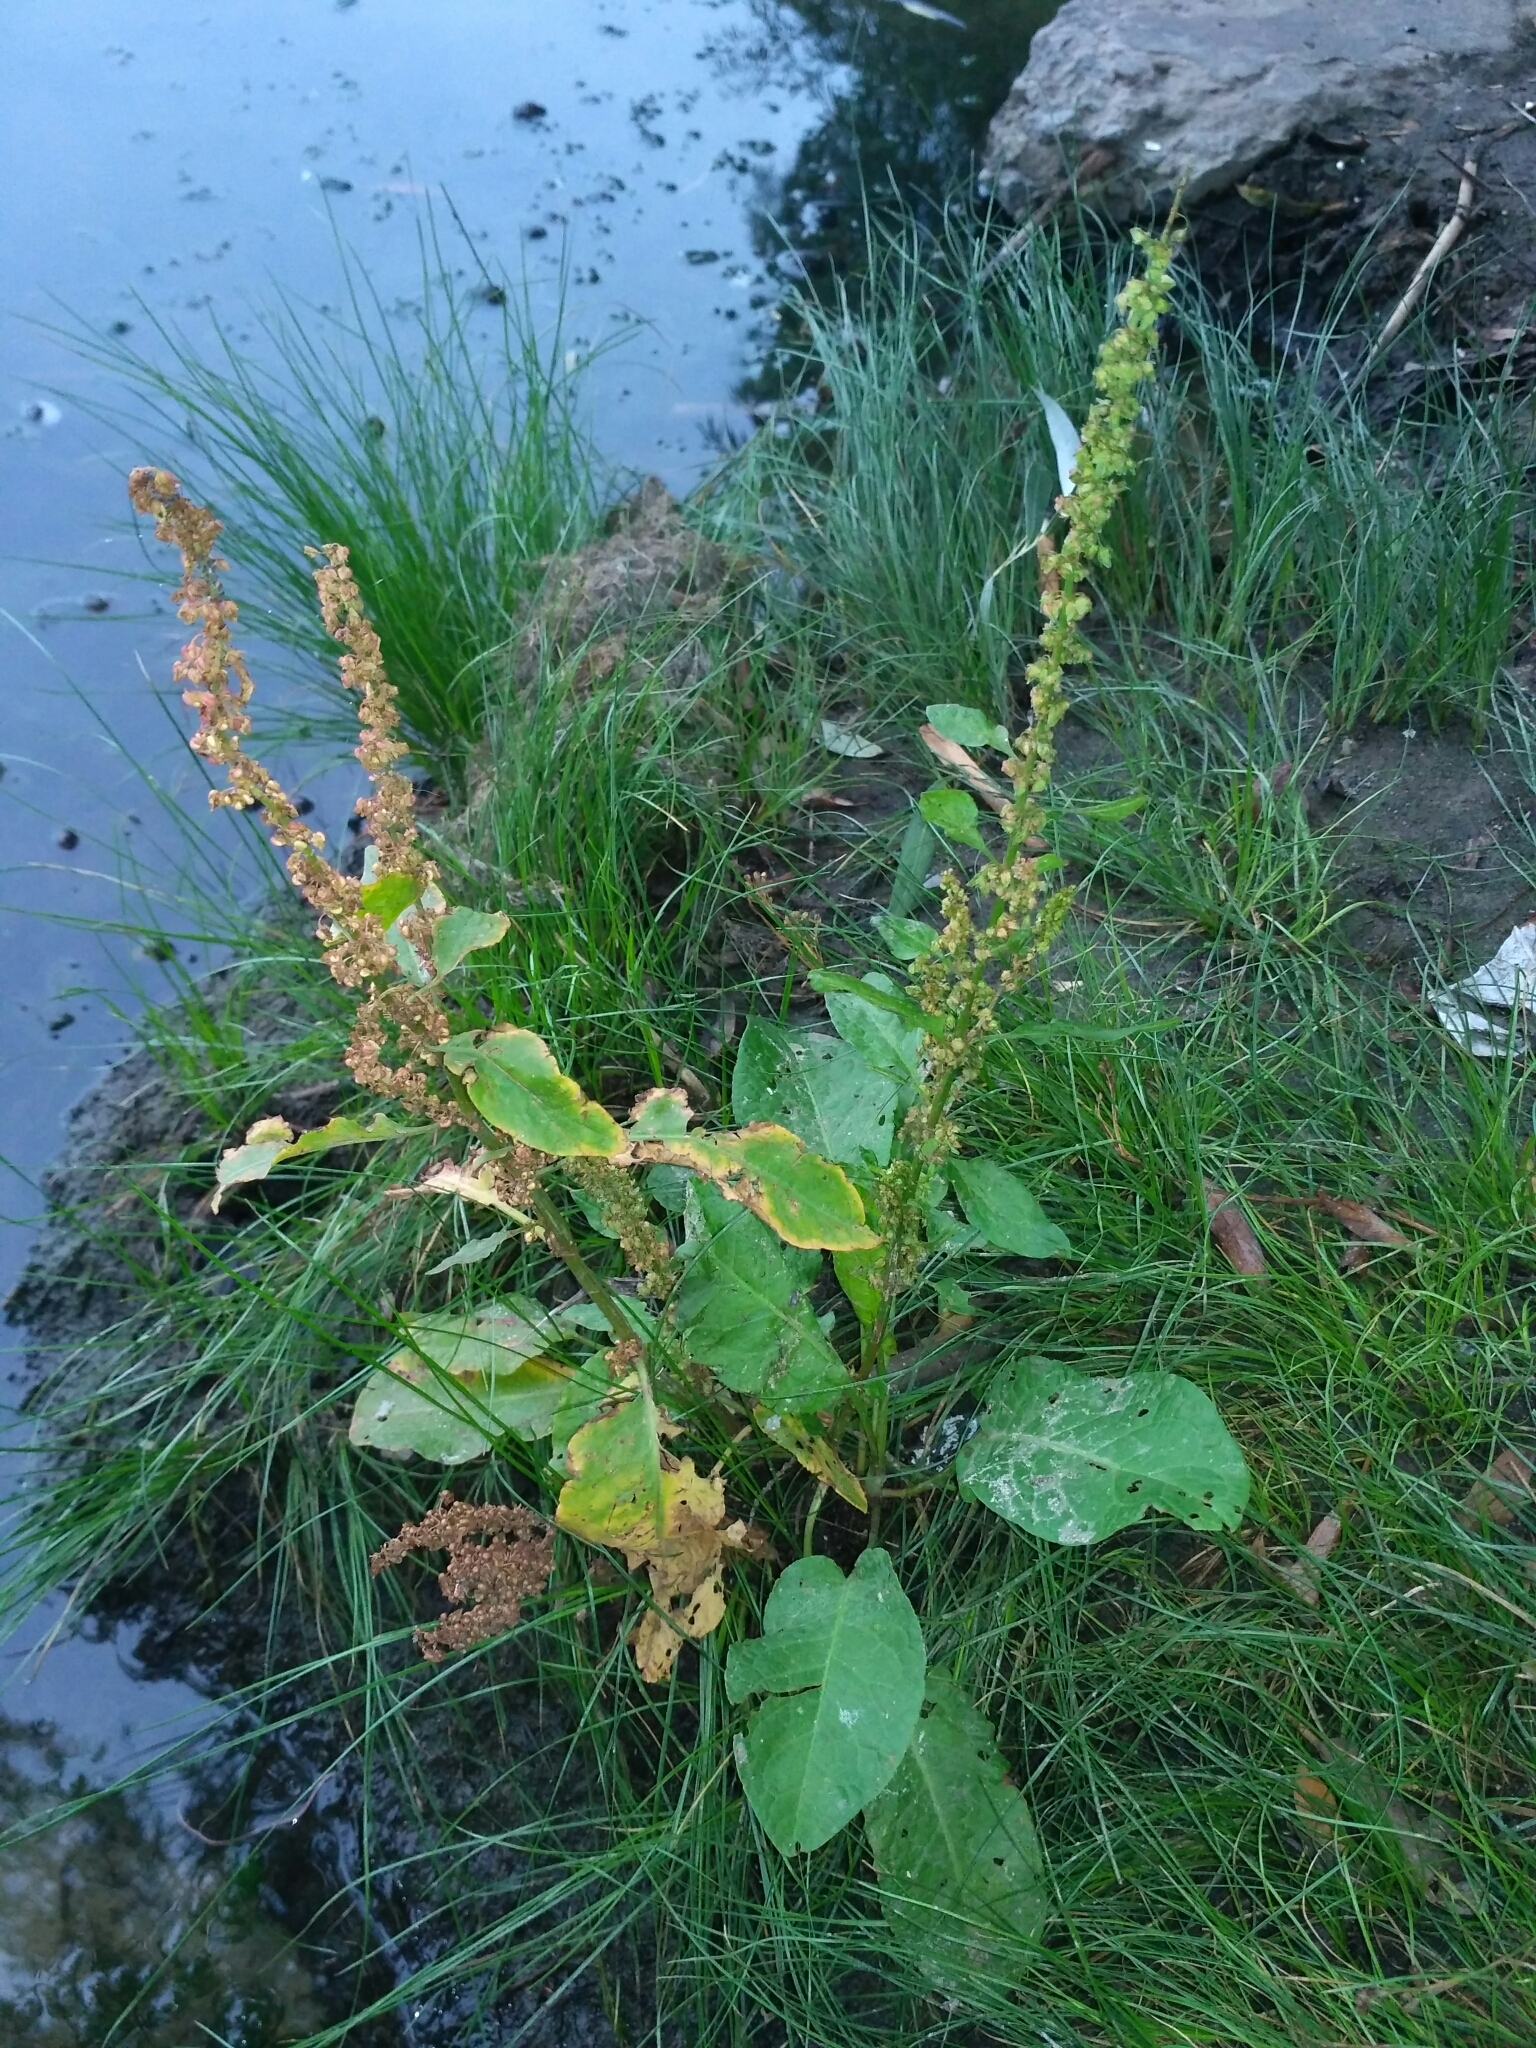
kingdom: Plantae
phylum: Tracheophyta
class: Magnoliopsida
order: Caryophyllales
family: Polygonaceae
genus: Rumex
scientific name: Rumex obtusifolius
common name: Bitter dock
